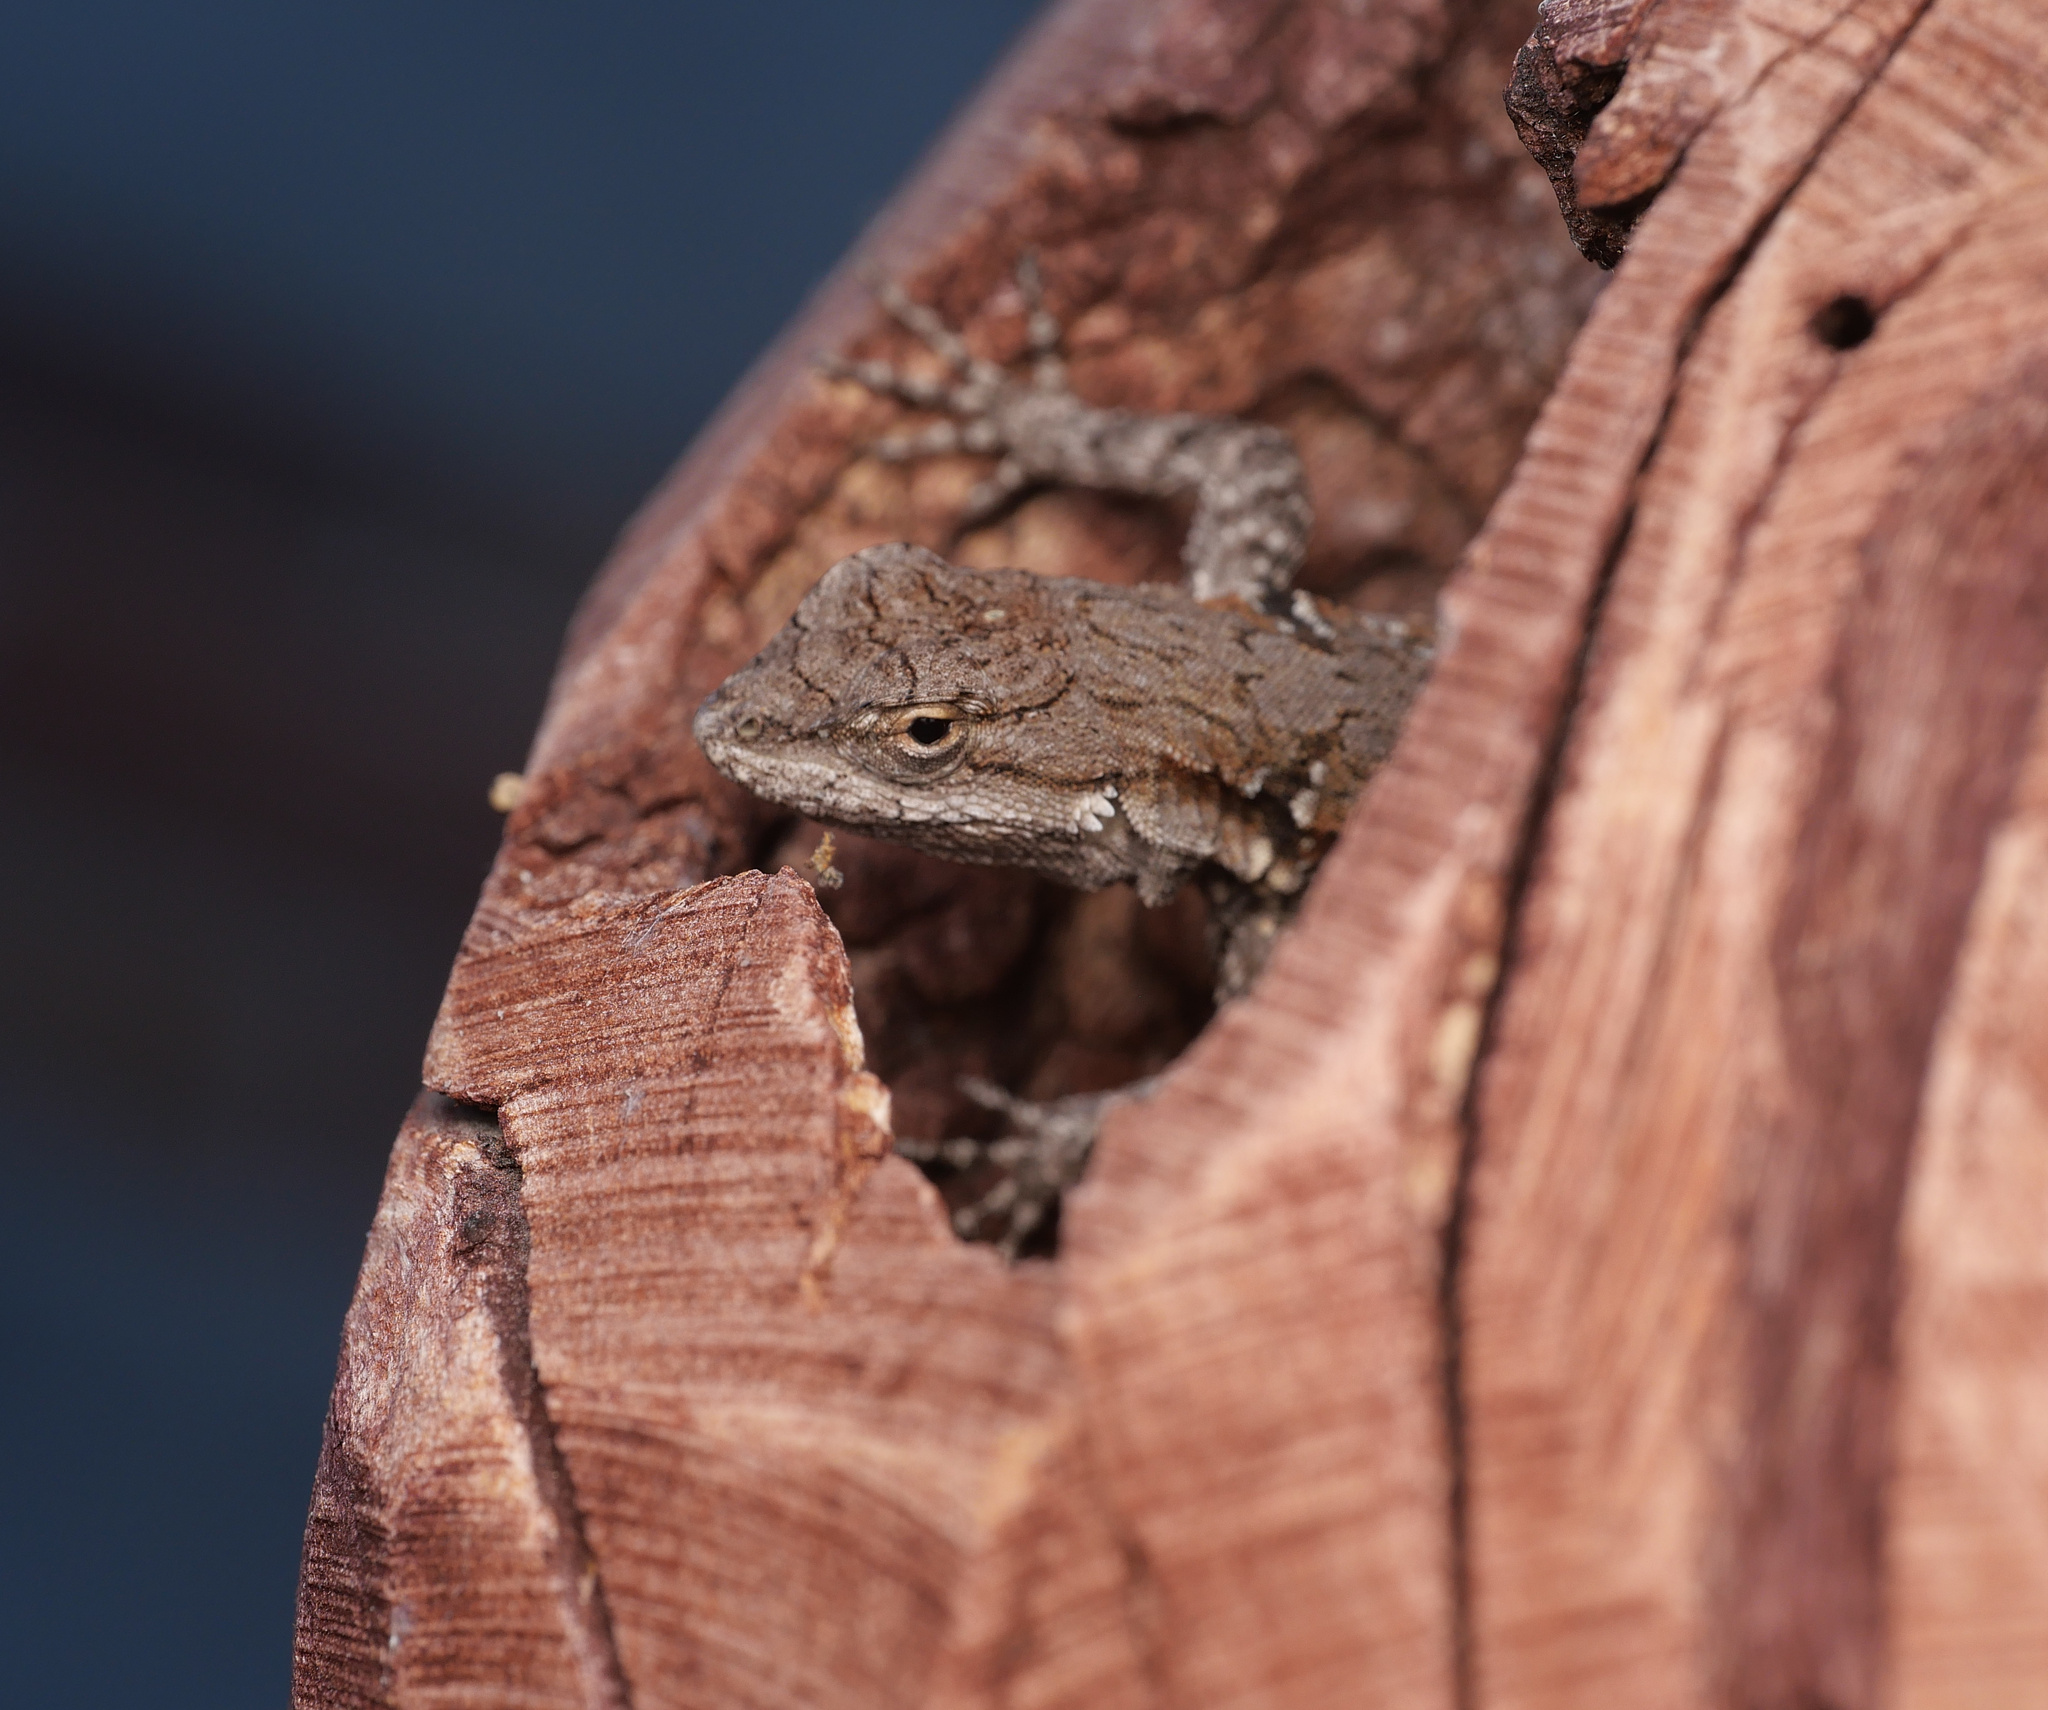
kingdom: Animalia
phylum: Chordata
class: Squamata
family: Phrynosomatidae
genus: Urosaurus
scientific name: Urosaurus nigricauda
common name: Baja california brush lizard
